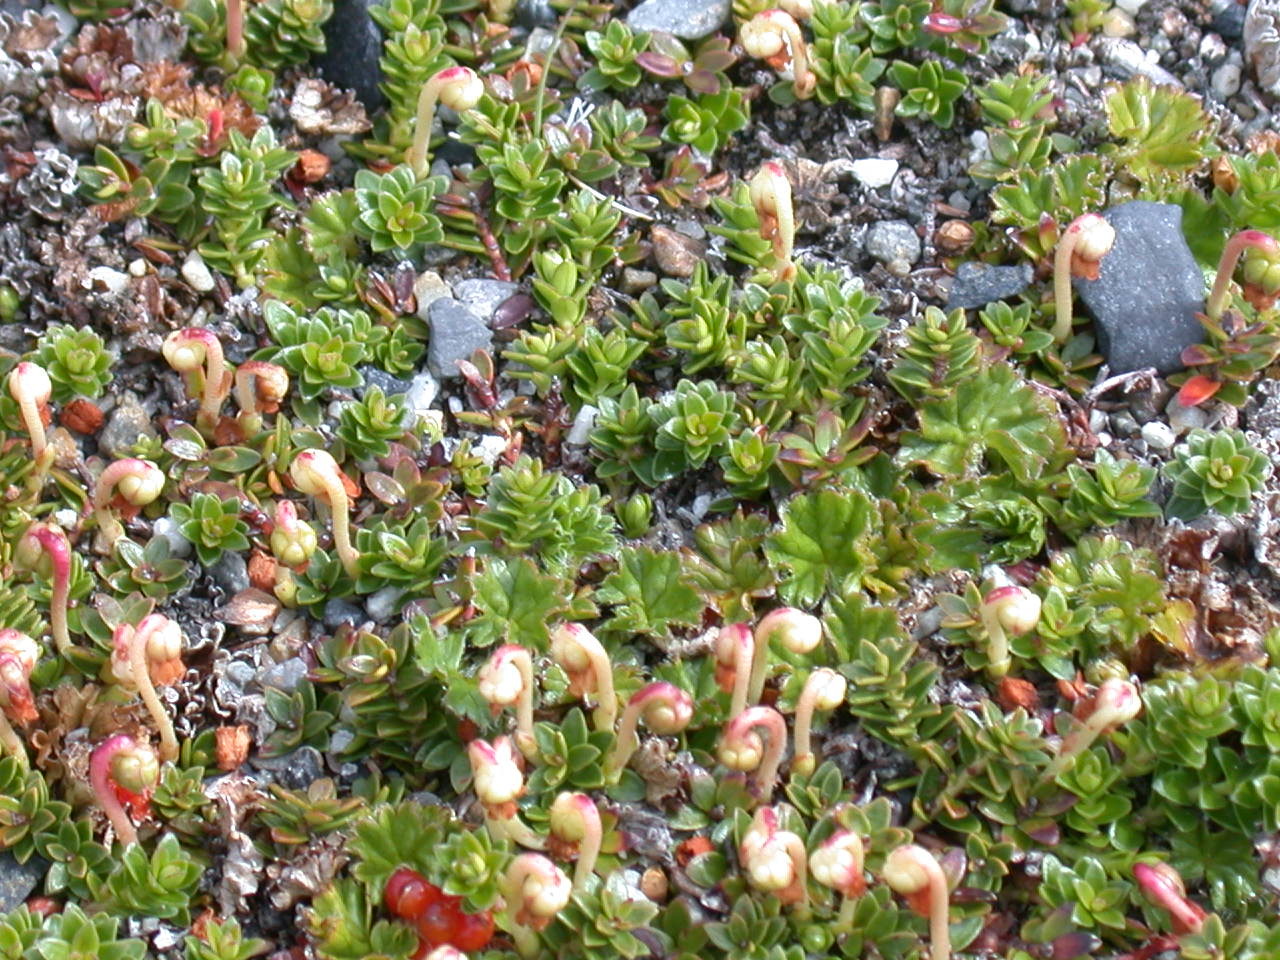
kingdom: Plantae
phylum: Tracheophyta
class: Magnoliopsida
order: Ericales
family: Ericaceae
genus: Gaultheria
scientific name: Gaultheria pumila
